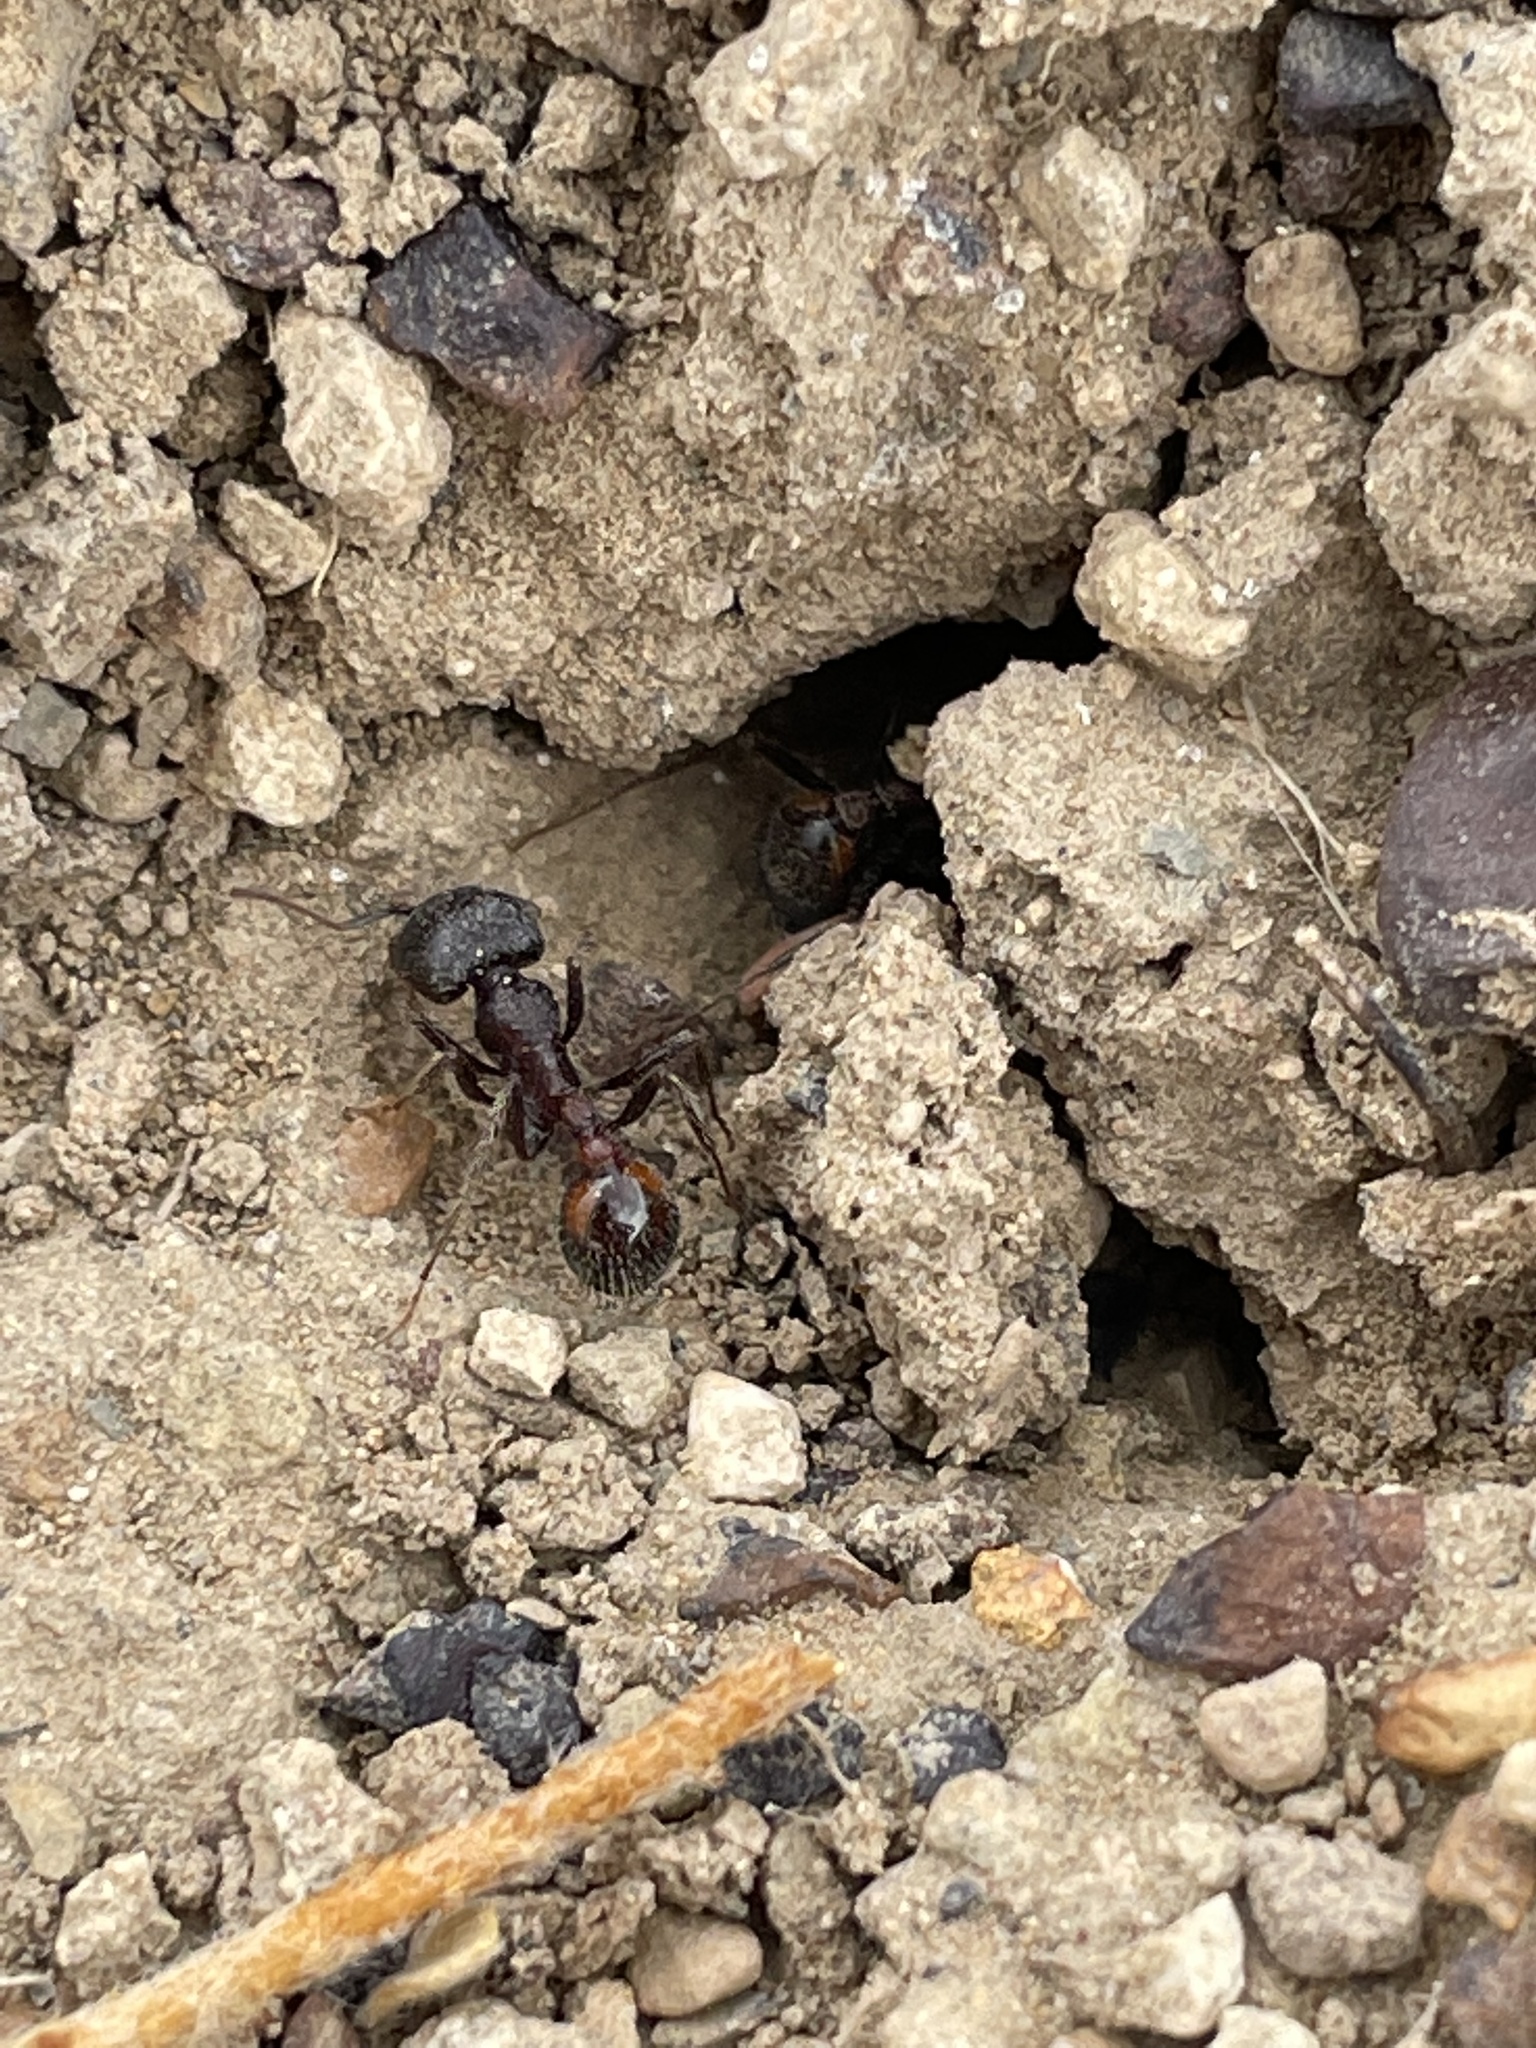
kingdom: Animalia
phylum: Arthropoda
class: Insecta
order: Hymenoptera
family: Formicidae
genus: Pogonomyrmex
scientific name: Pogonomyrmex rugosus
